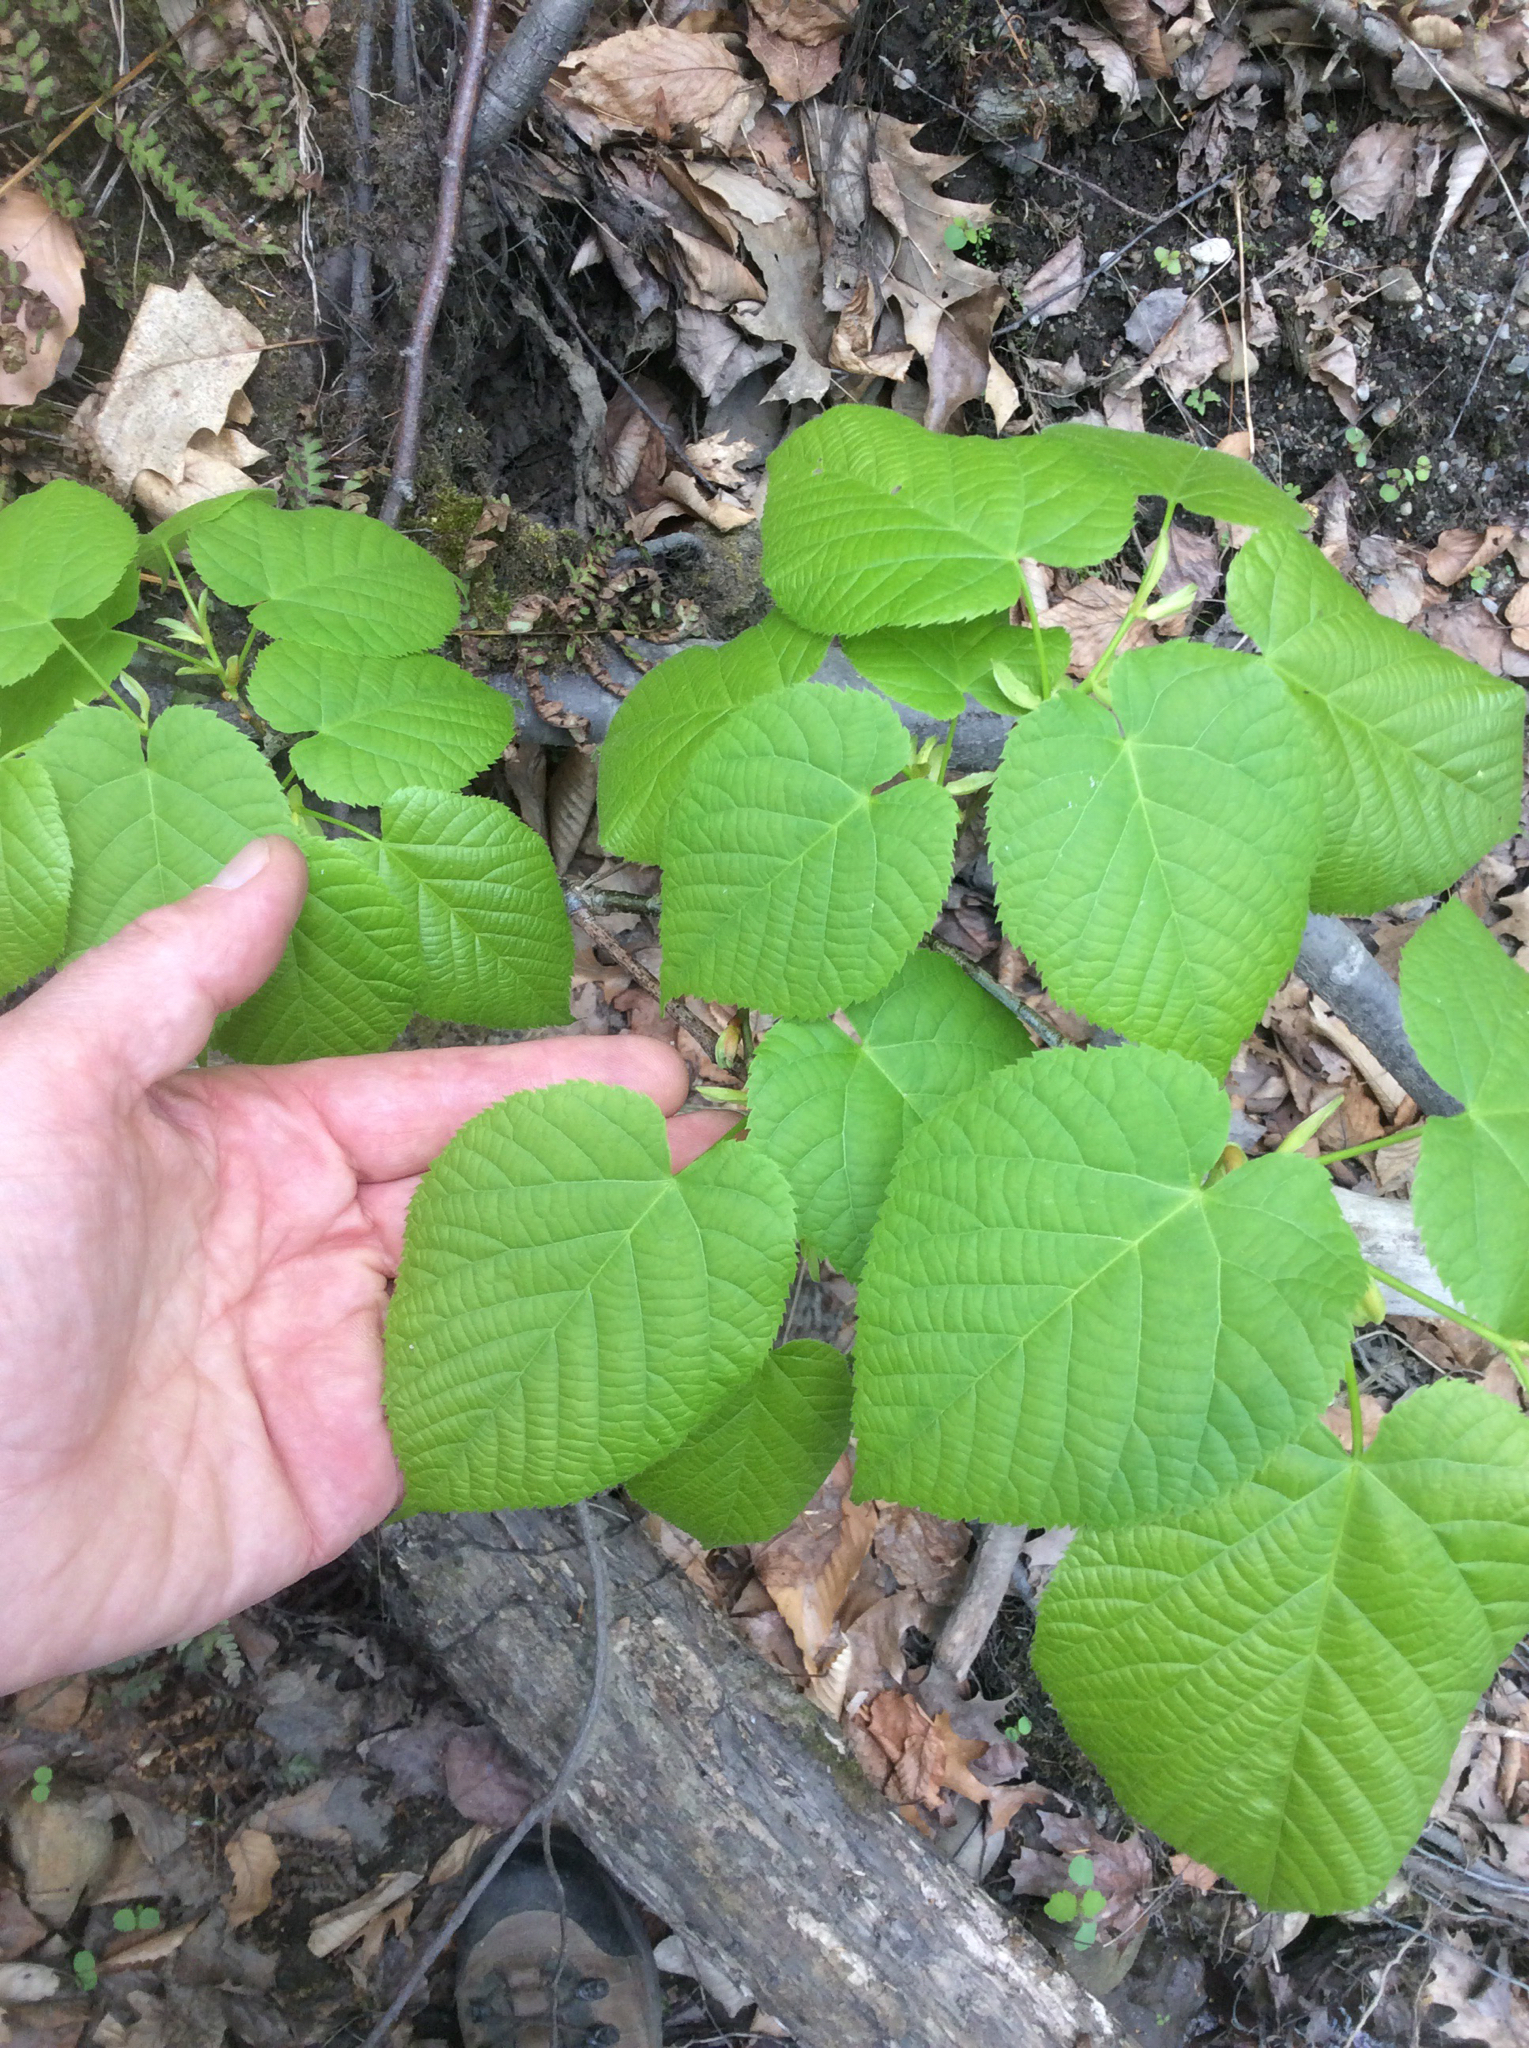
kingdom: Plantae
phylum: Tracheophyta
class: Magnoliopsida
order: Malvales
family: Malvaceae
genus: Tilia
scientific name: Tilia americana
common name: Basswood
